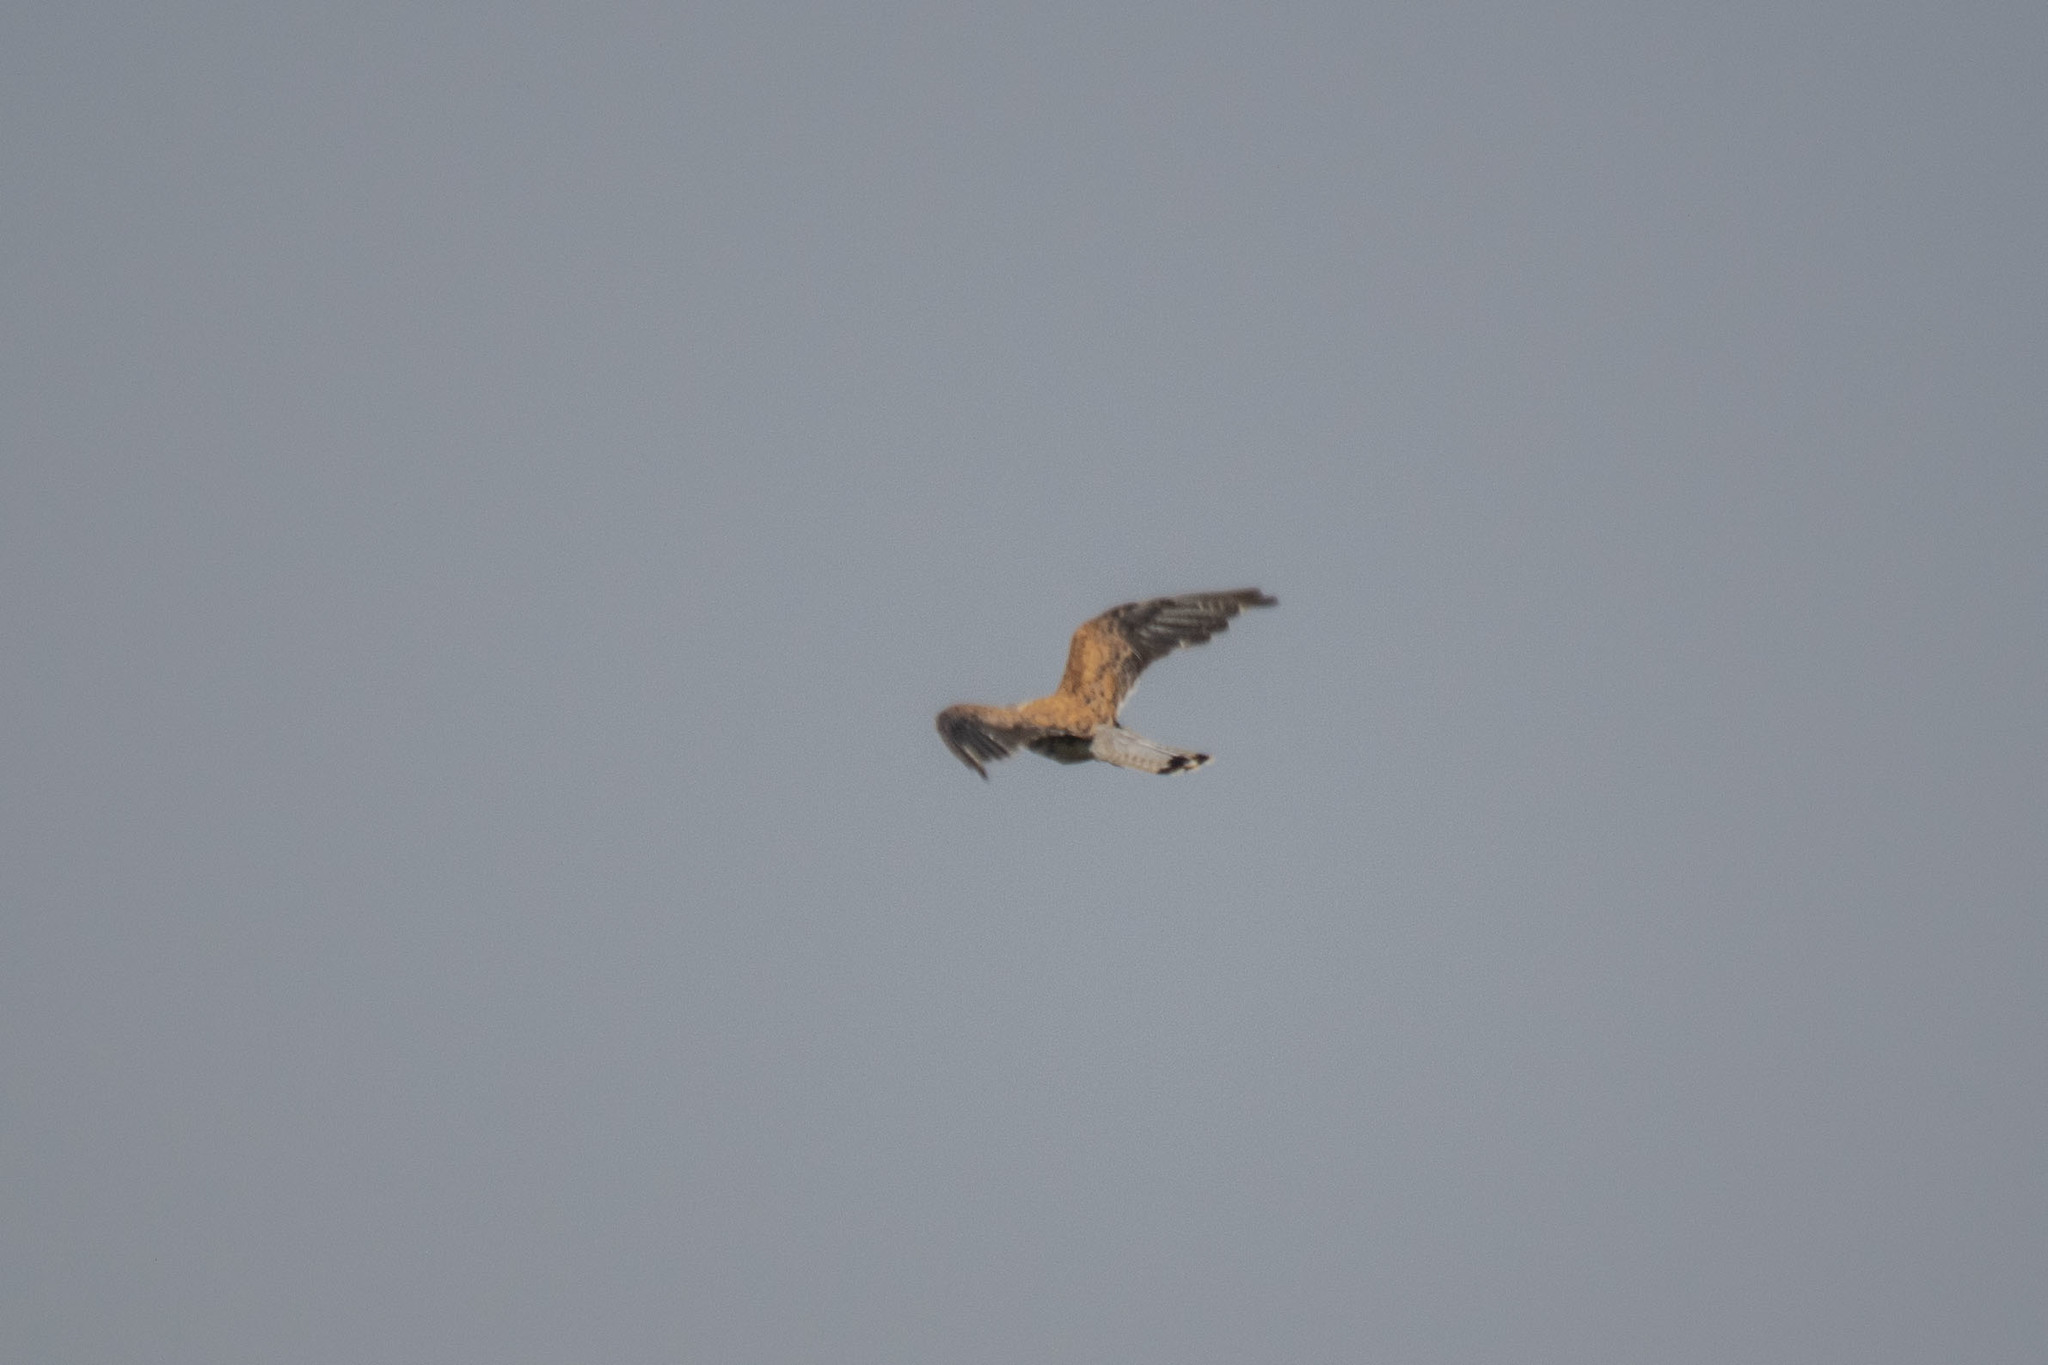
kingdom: Animalia
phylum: Chordata
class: Aves
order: Falconiformes
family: Falconidae
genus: Falco
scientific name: Falco tinnunculus
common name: Common kestrel
